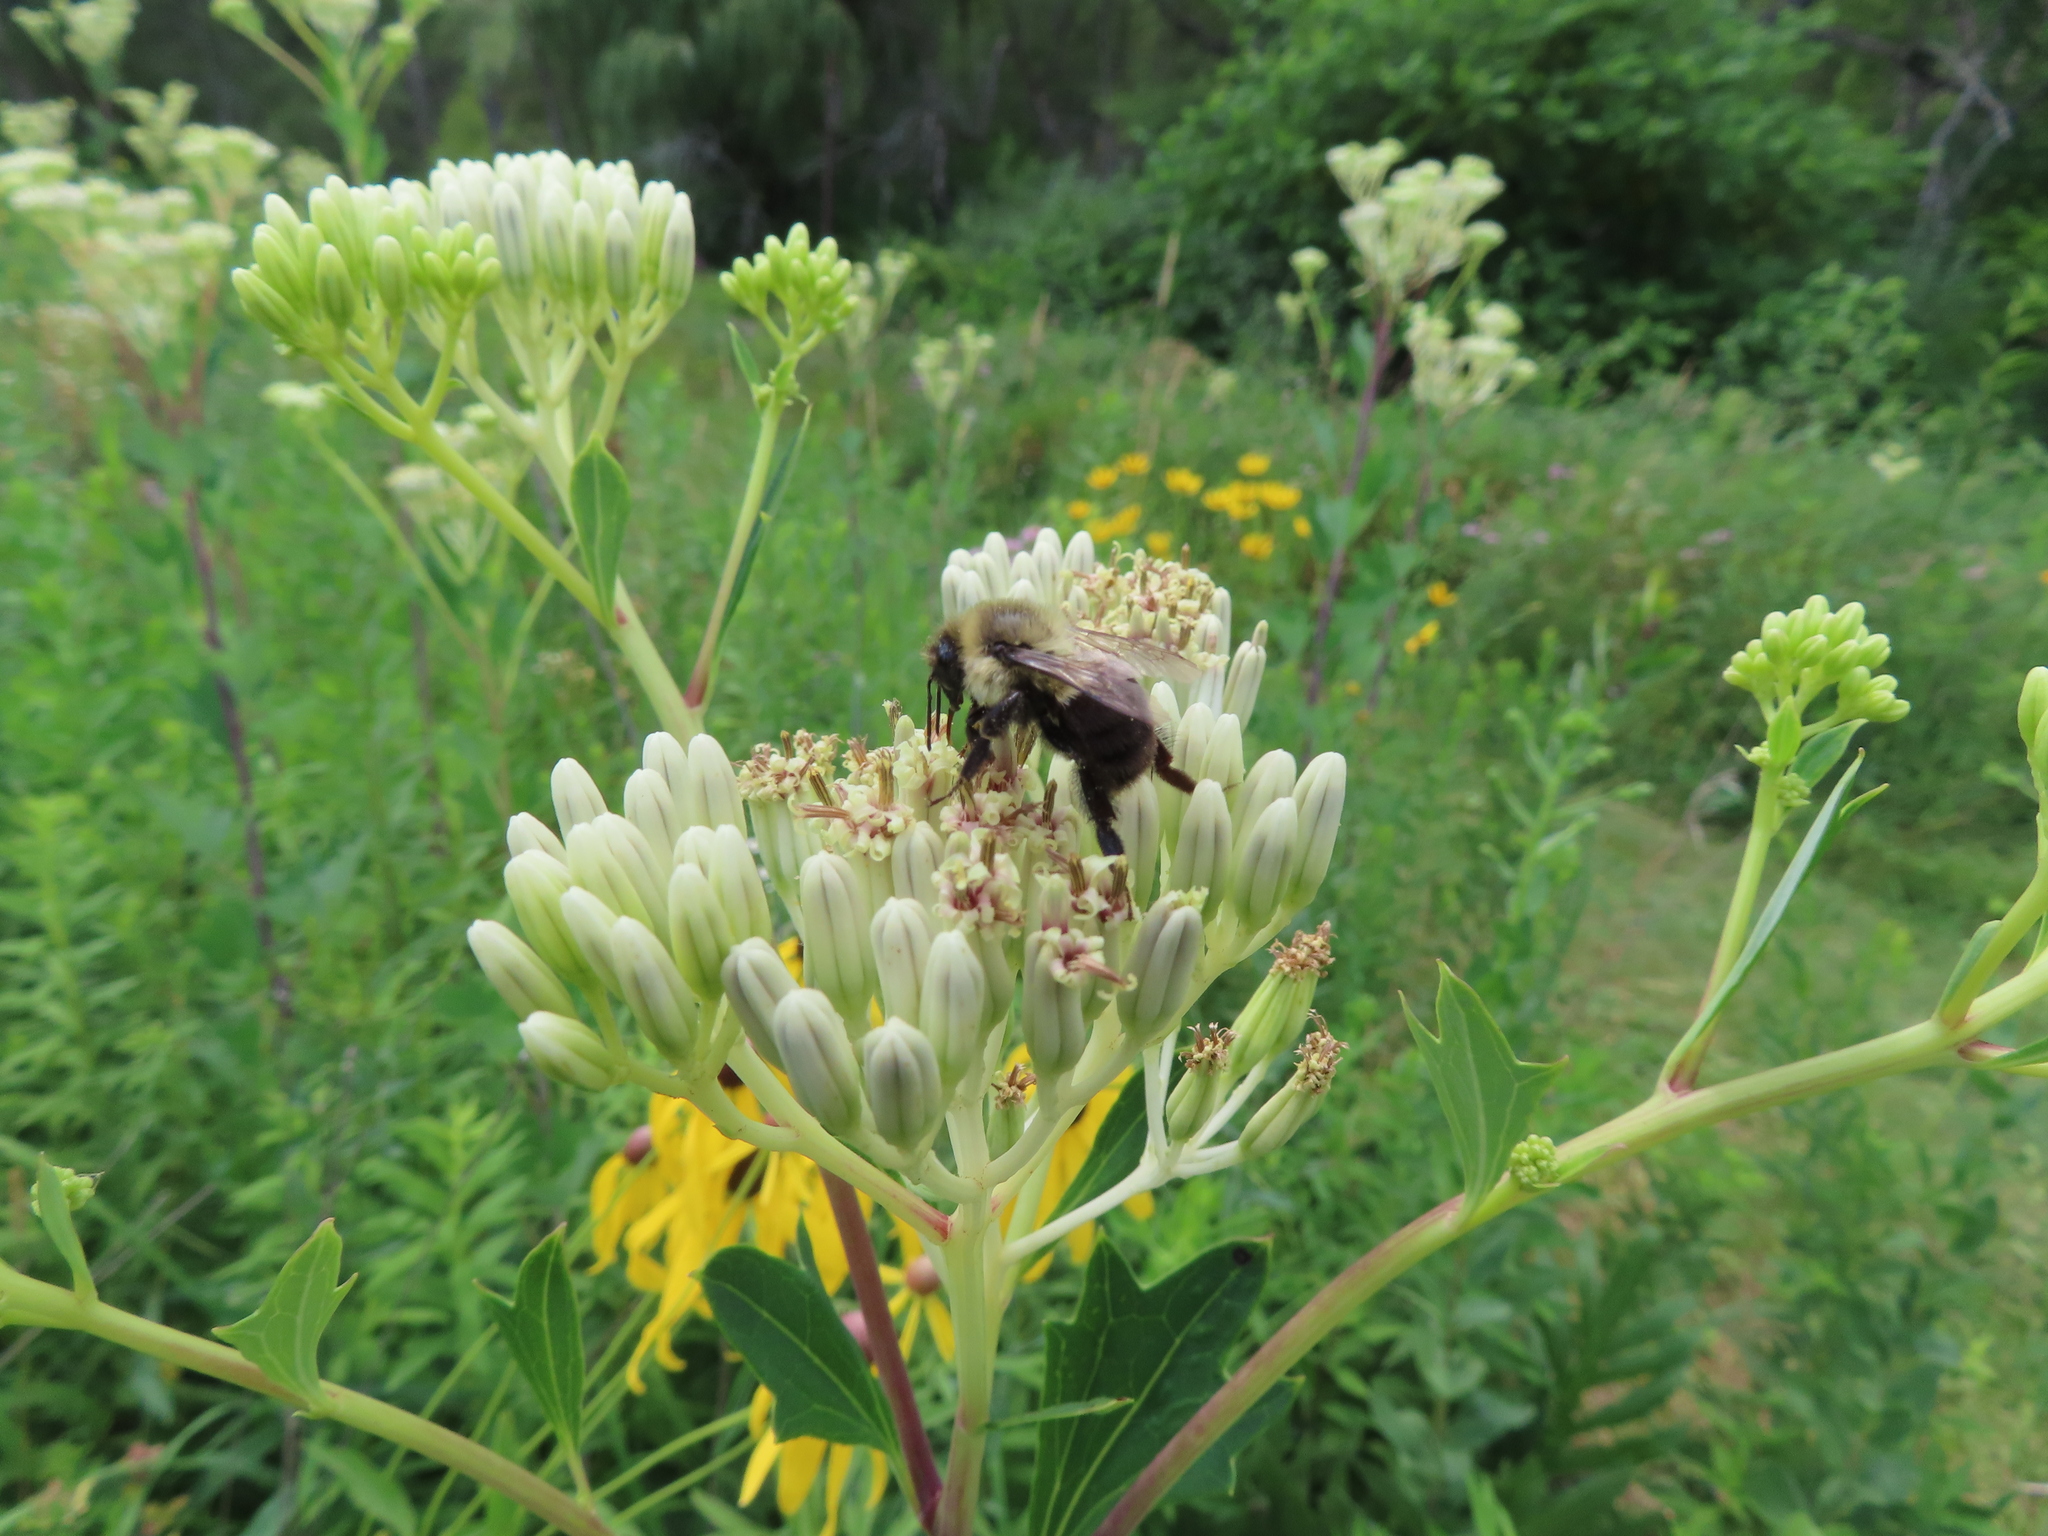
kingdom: Animalia
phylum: Arthropoda
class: Insecta
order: Hymenoptera
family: Apidae
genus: Bombus
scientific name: Bombus impatiens
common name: Common eastern bumble bee
